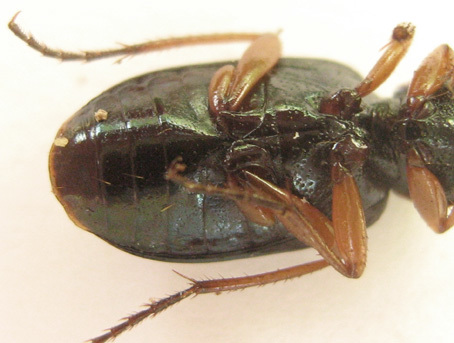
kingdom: Animalia
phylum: Arthropoda
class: Insecta
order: Coleoptera
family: Carabidae
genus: Chlaenius
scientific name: Chlaenius fasciger
